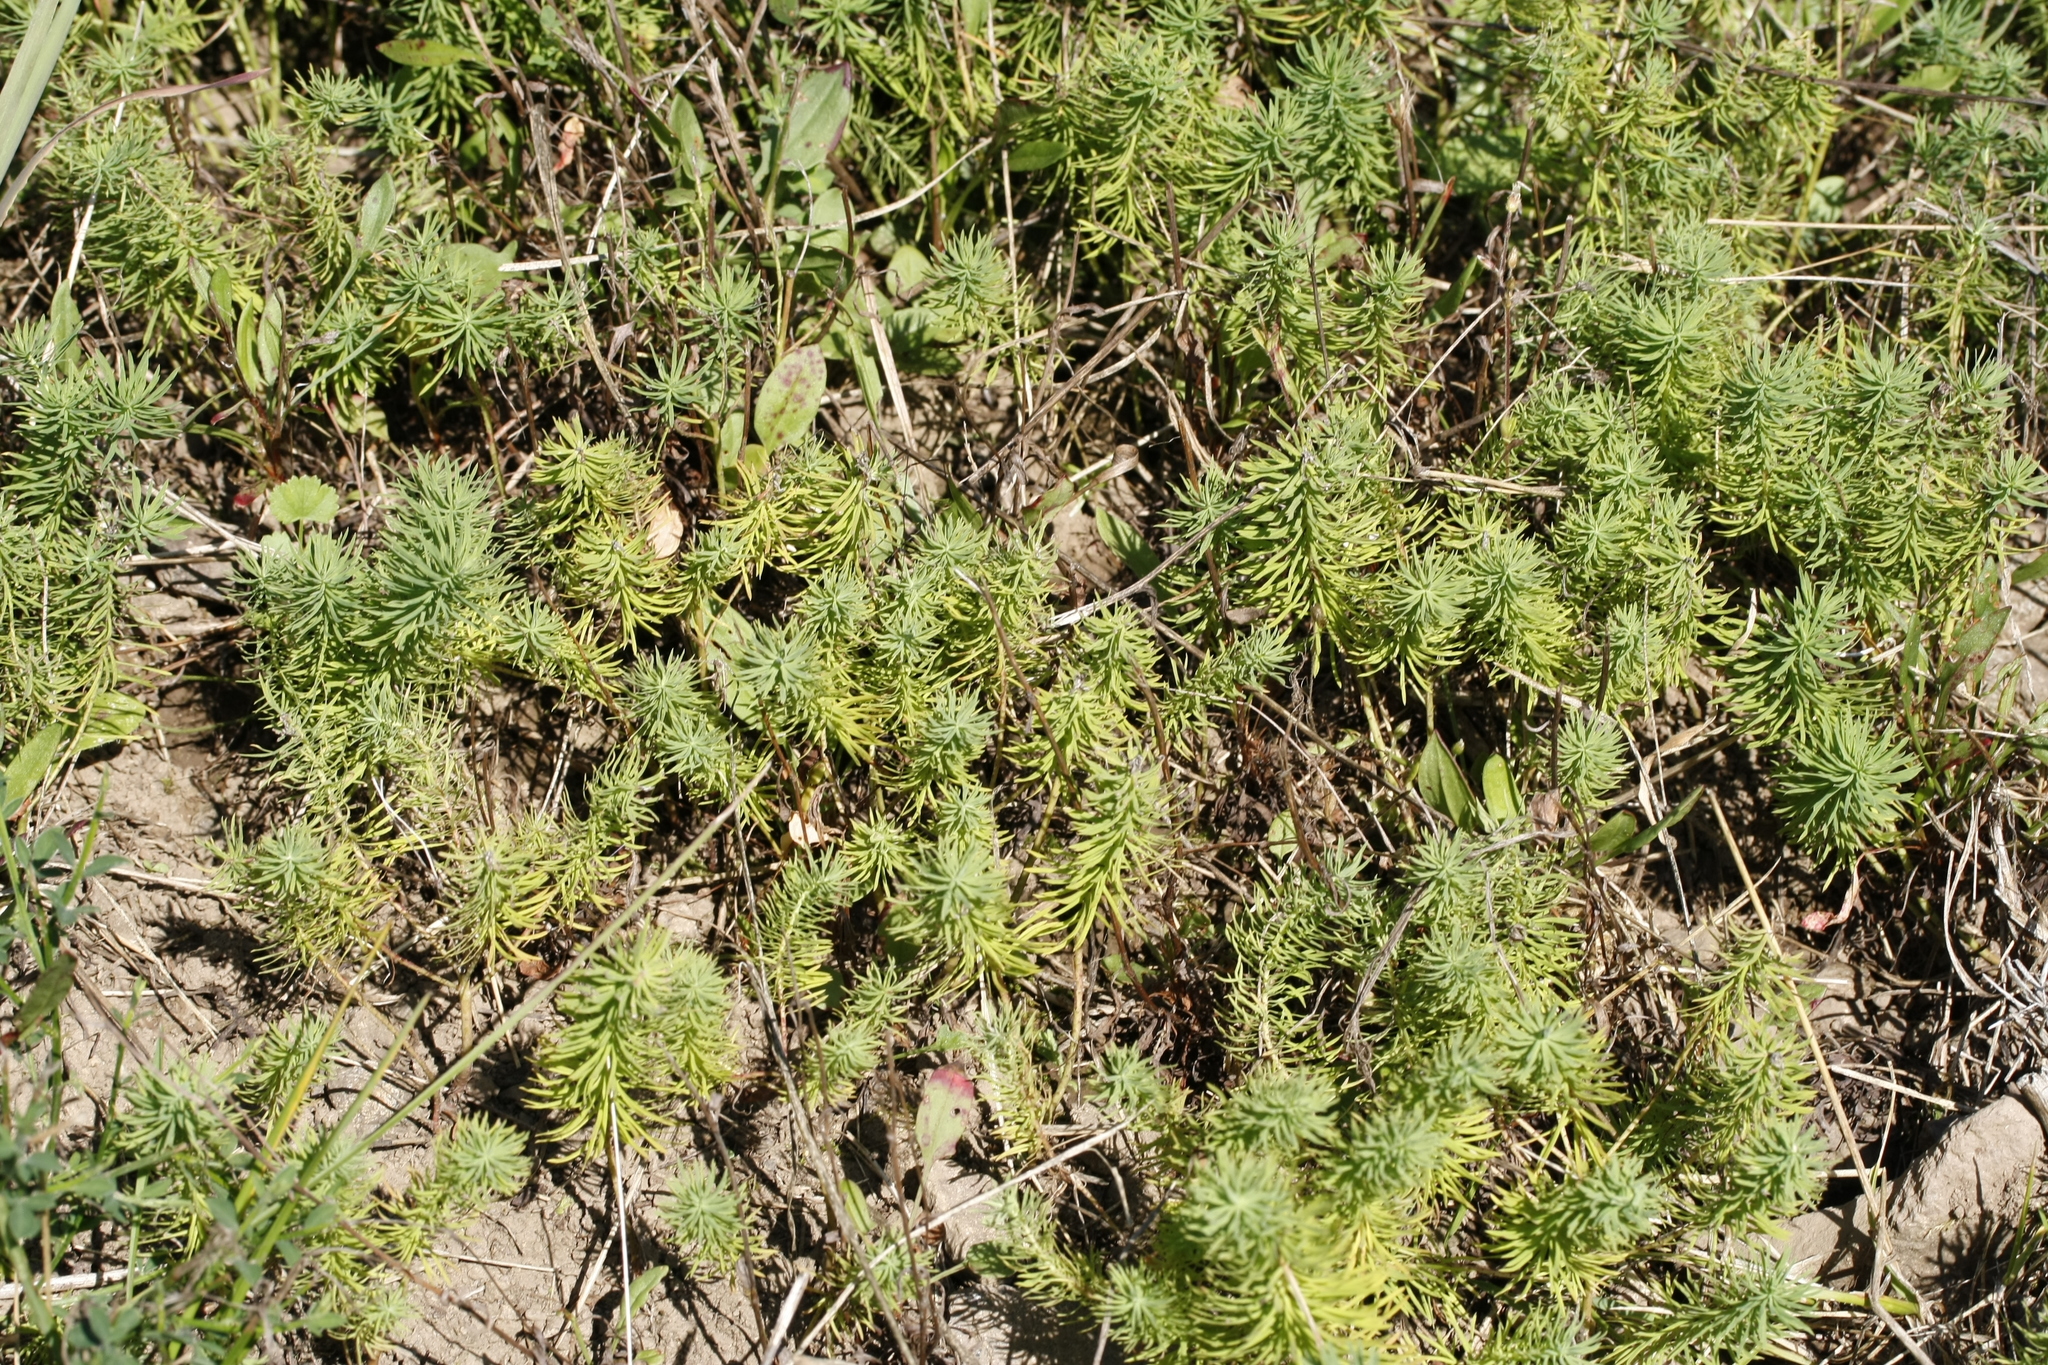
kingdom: Plantae
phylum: Tracheophyta
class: Magnoliopsida
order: Malpighiales
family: Euphorbiaceae
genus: Euphorbia
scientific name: Euphorbia cyparissias
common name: Cypress spurge
